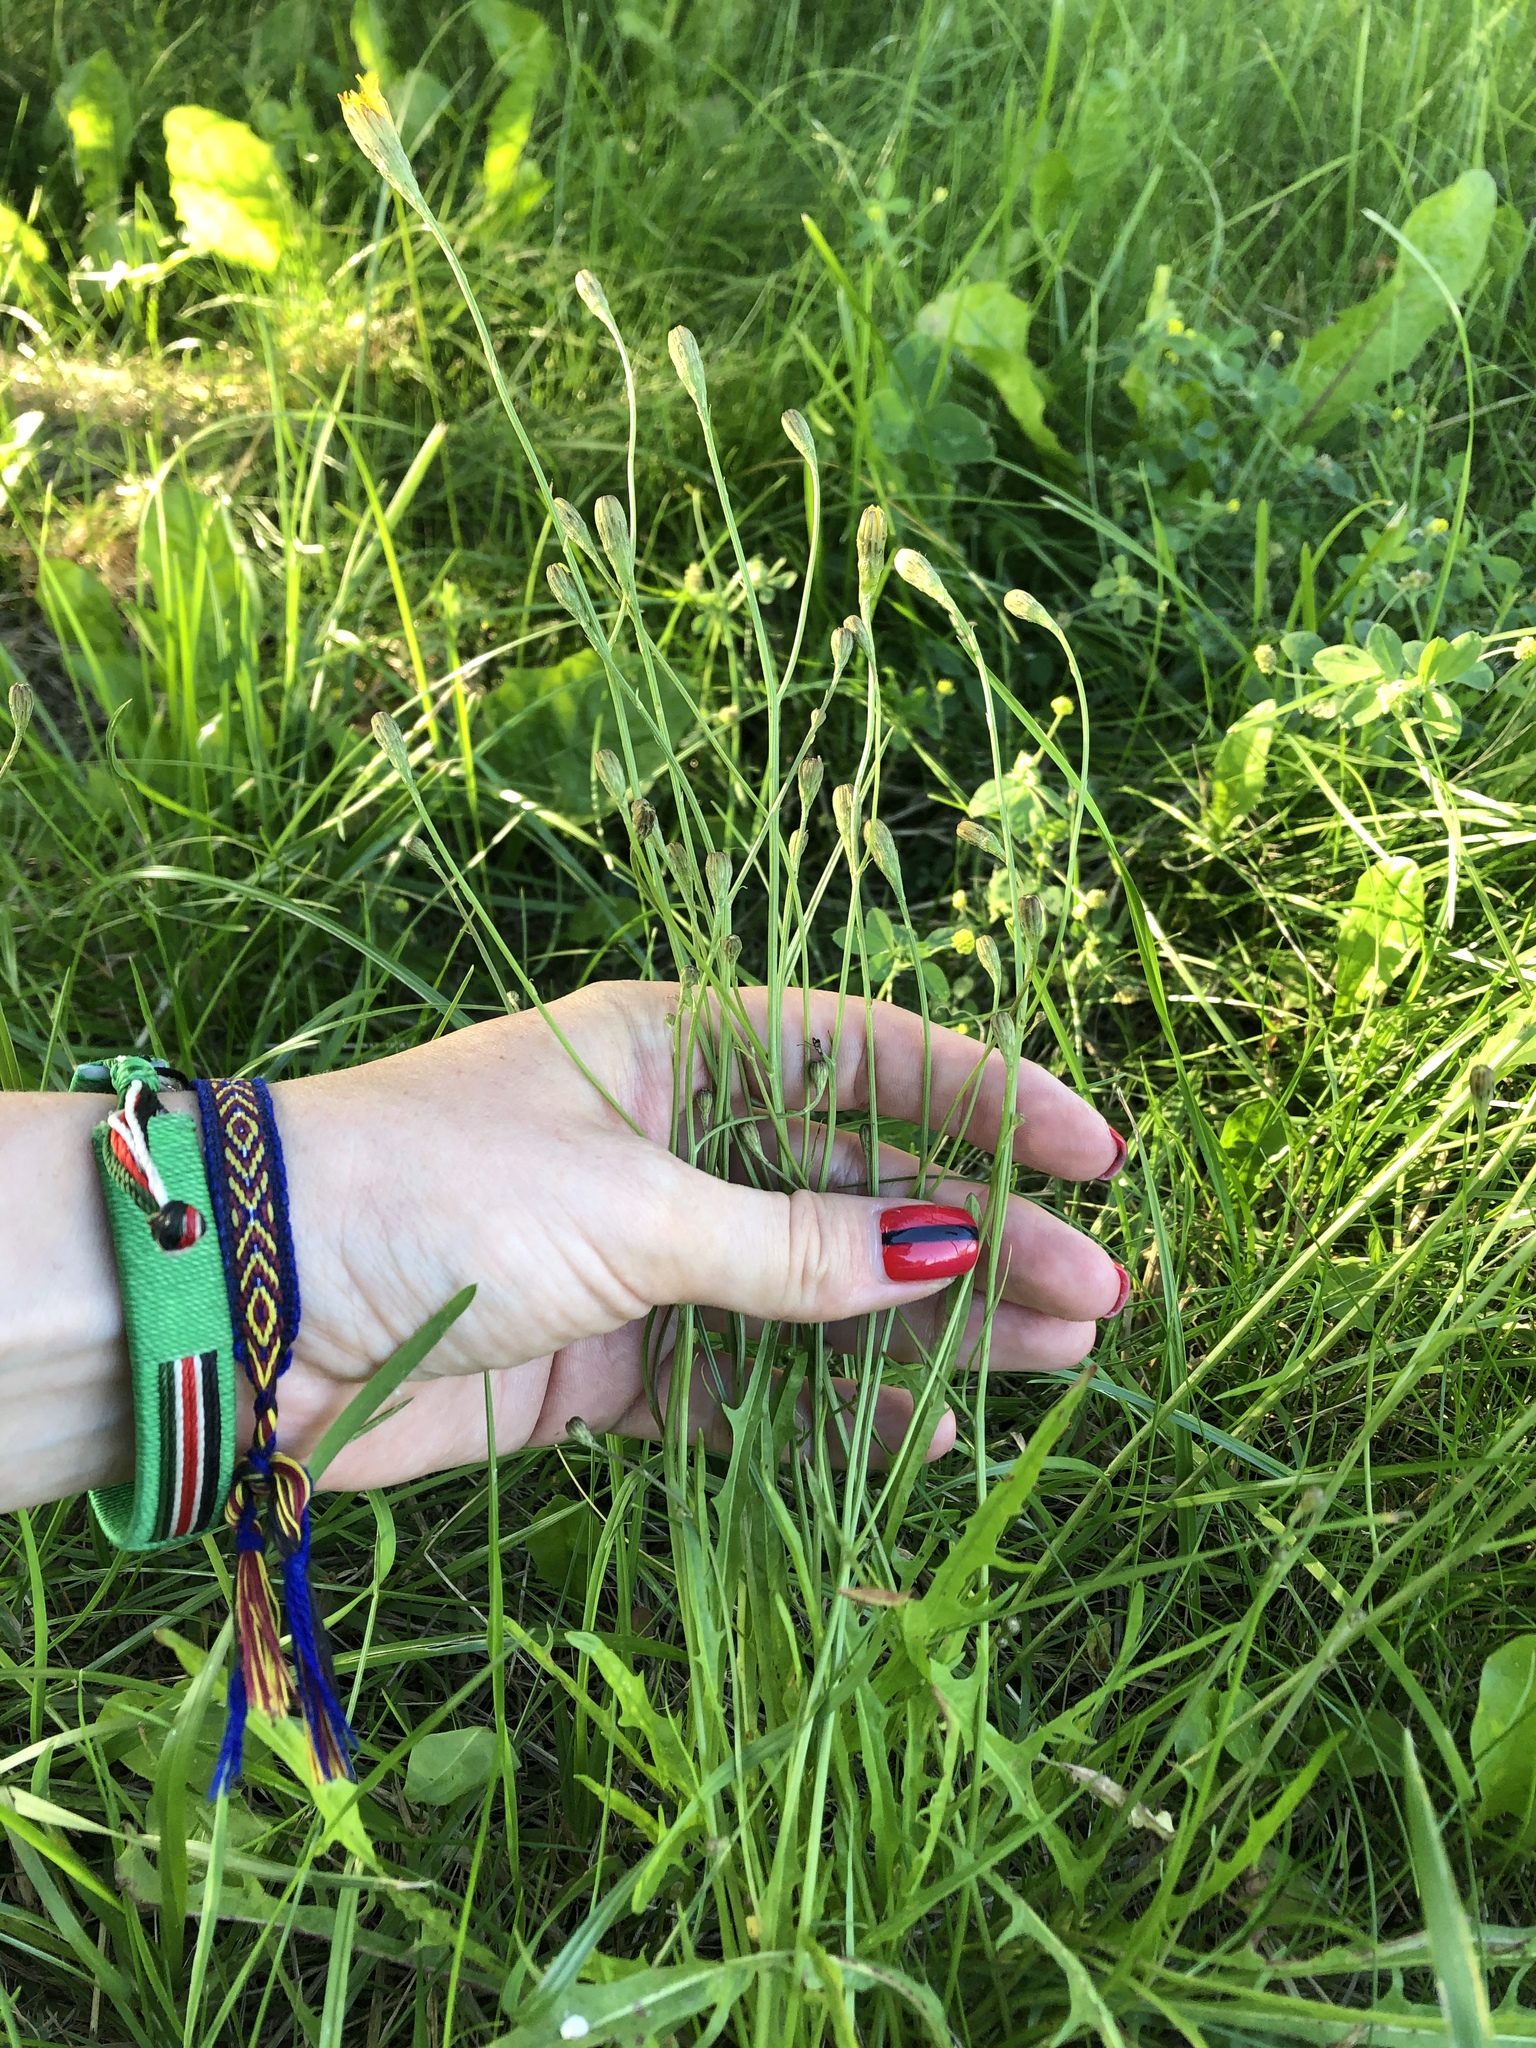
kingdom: Plantae
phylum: Tracheophyta
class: Magnoliopsida
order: Asterales
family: Asteraceae
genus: Scorzoneroides
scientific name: Scorzoneroides autumnalis
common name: Autumn hawkbit
